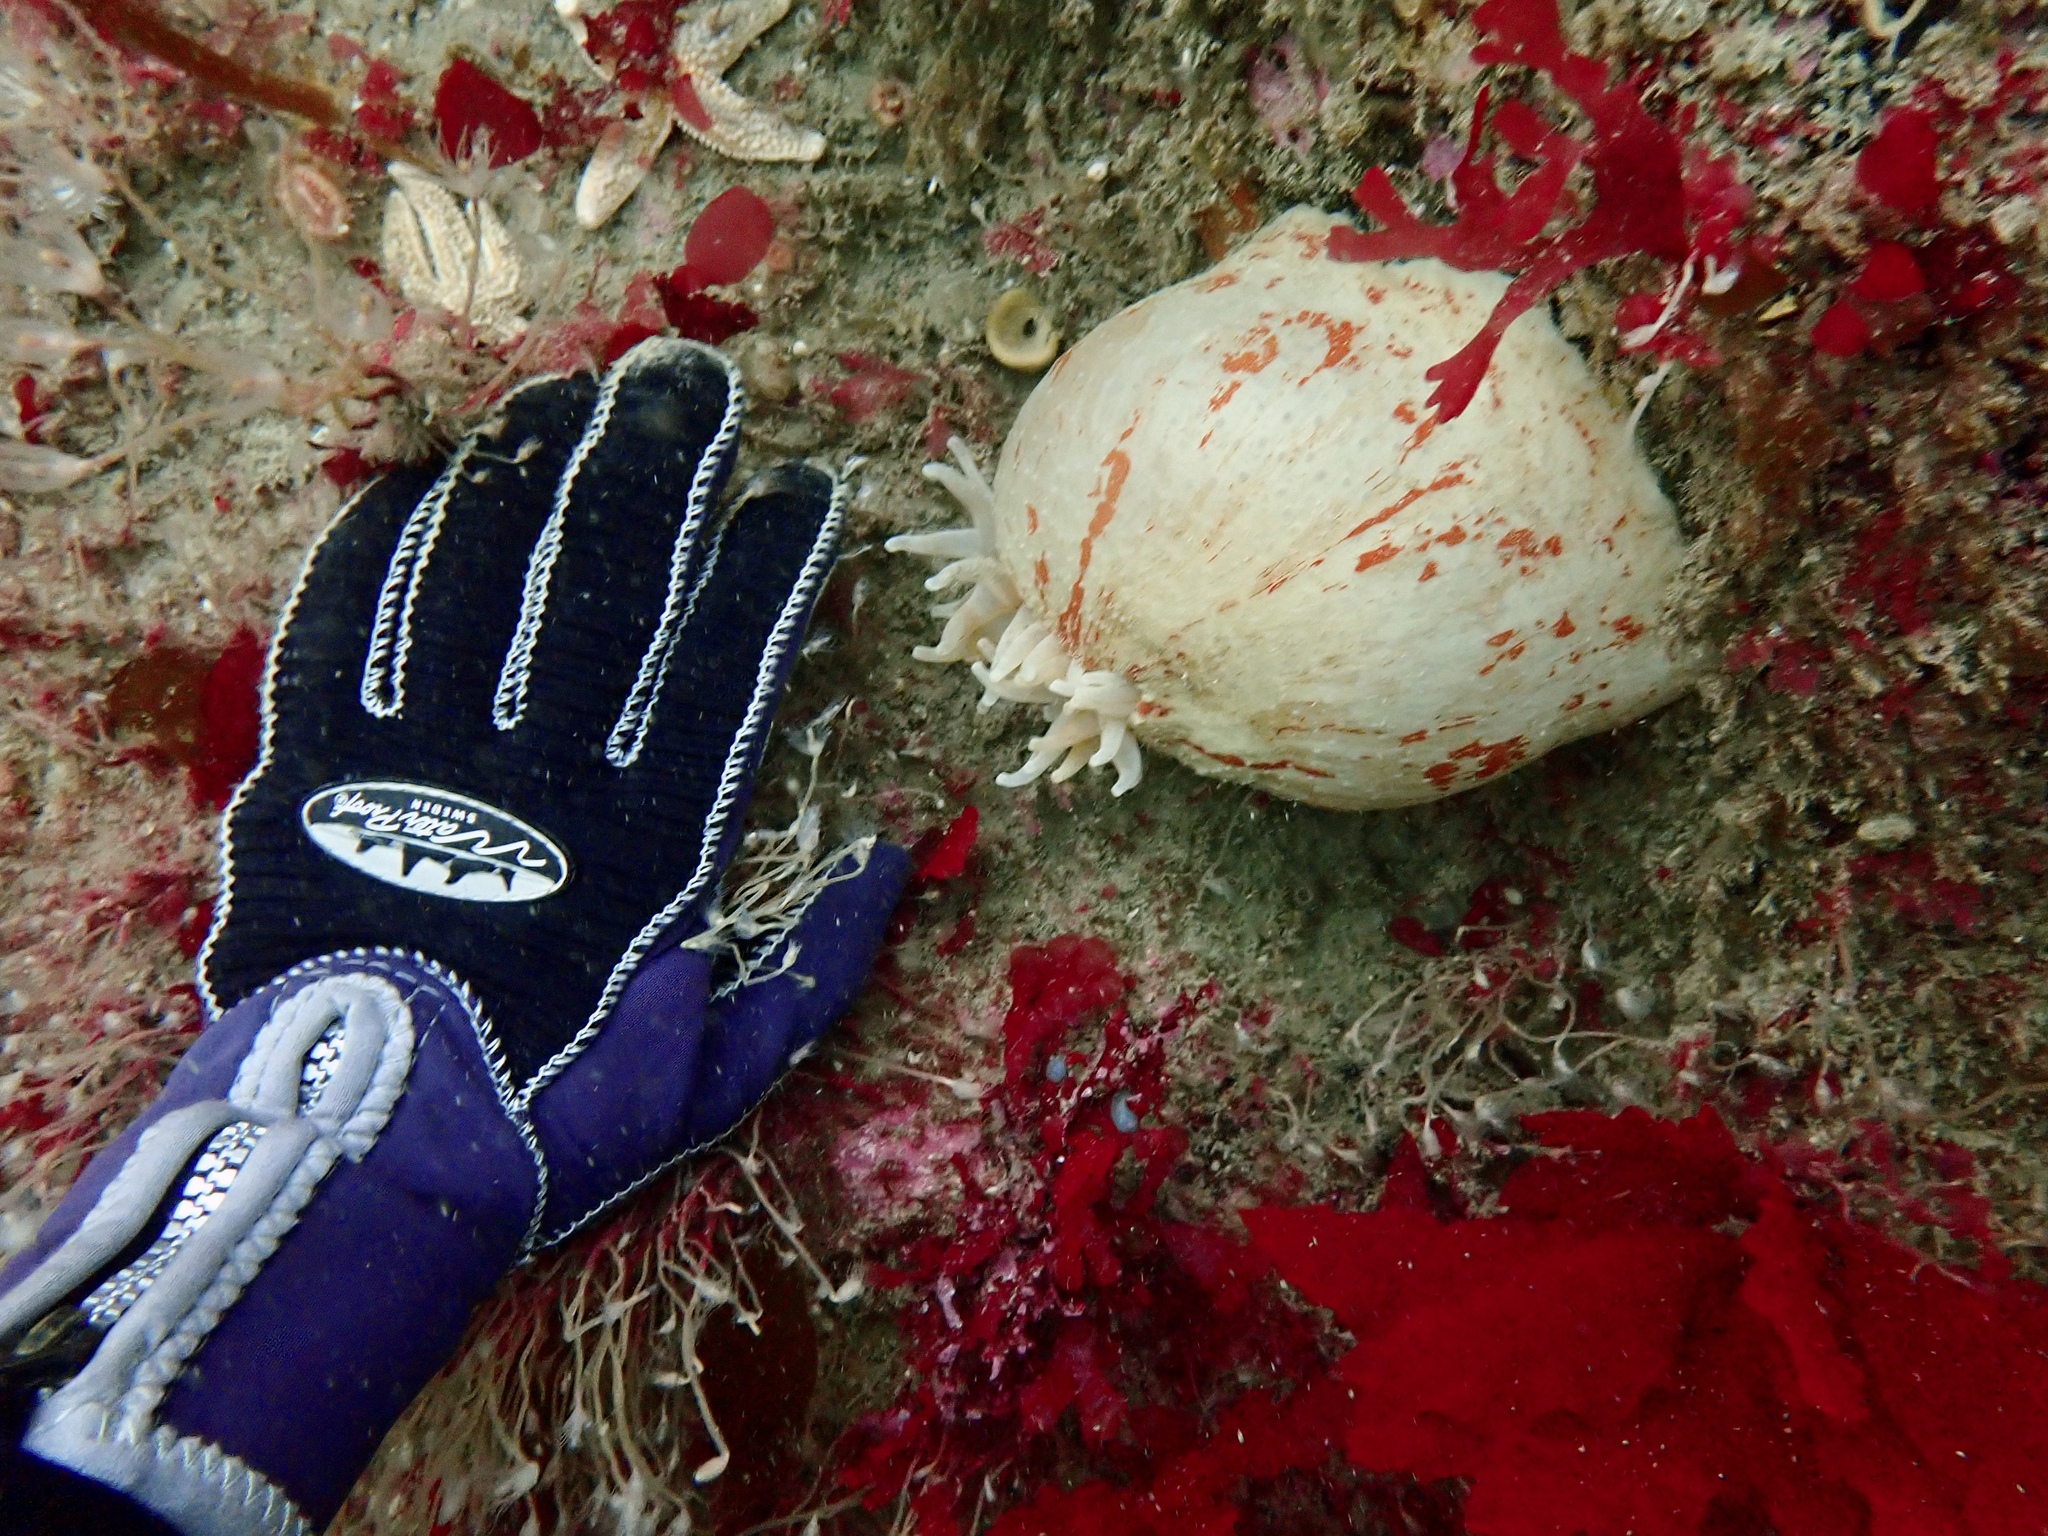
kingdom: Animalia
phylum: Cnidaria
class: Anthozoa
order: Actiniaria
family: Actiniidae
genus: Urticina
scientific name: Urticina eques
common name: Horseman anemone
